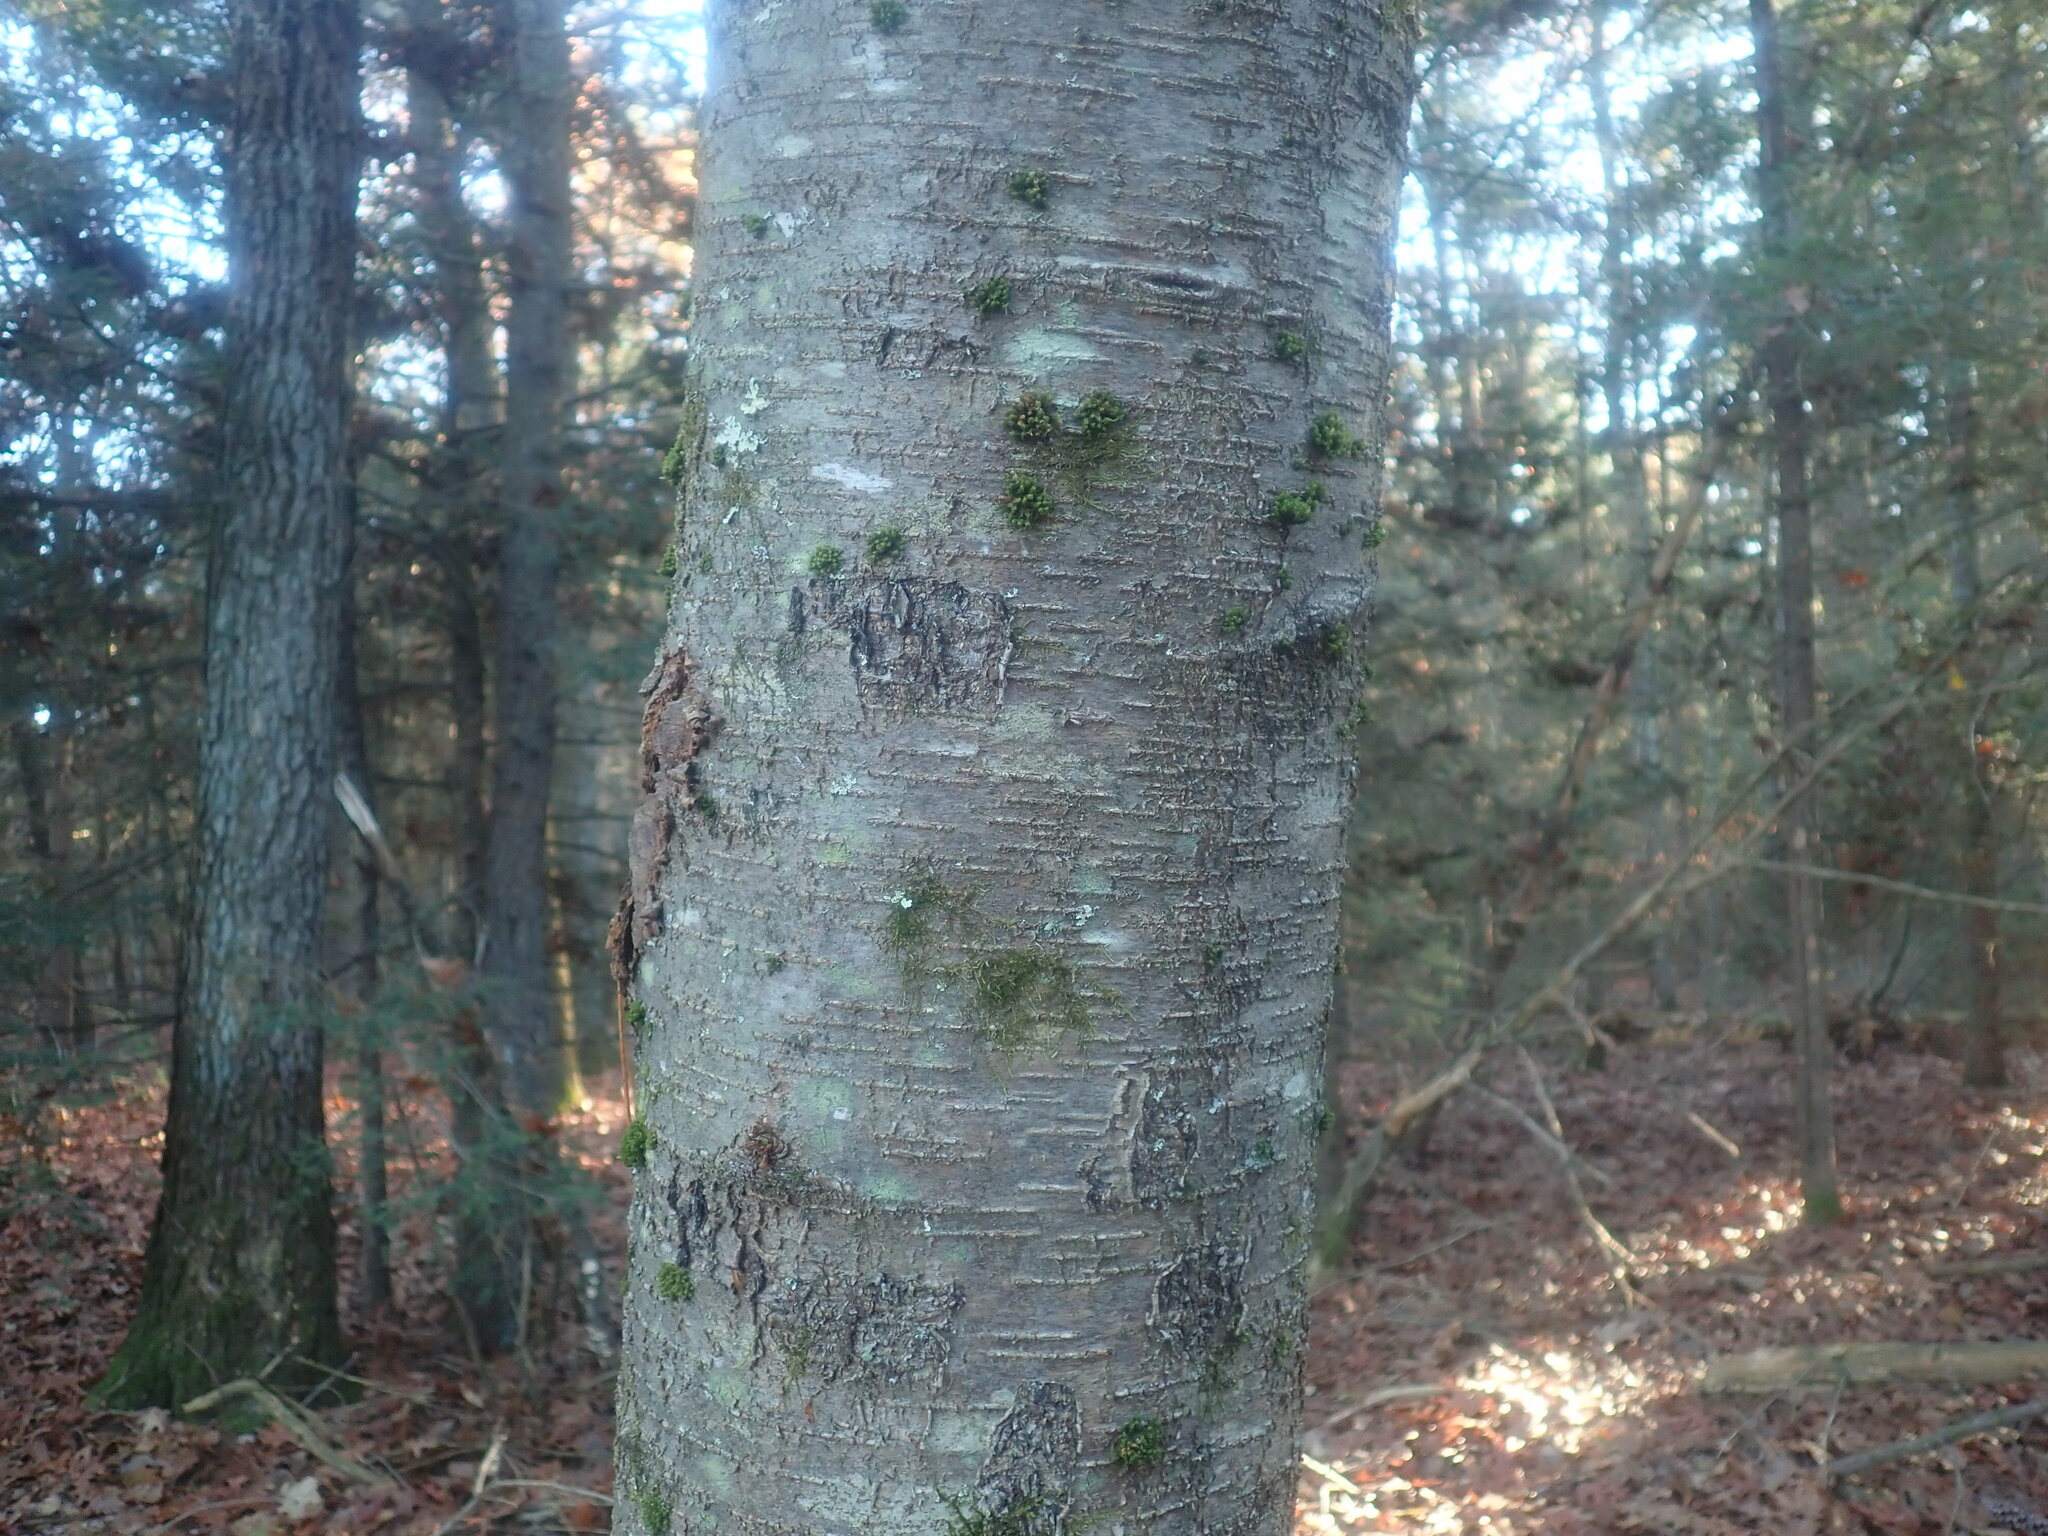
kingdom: Plantae
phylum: Tracheophyta
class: Magnoliopsida
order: Fagales
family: Betulaceae
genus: Betula
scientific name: Betula lenta
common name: Black birch
